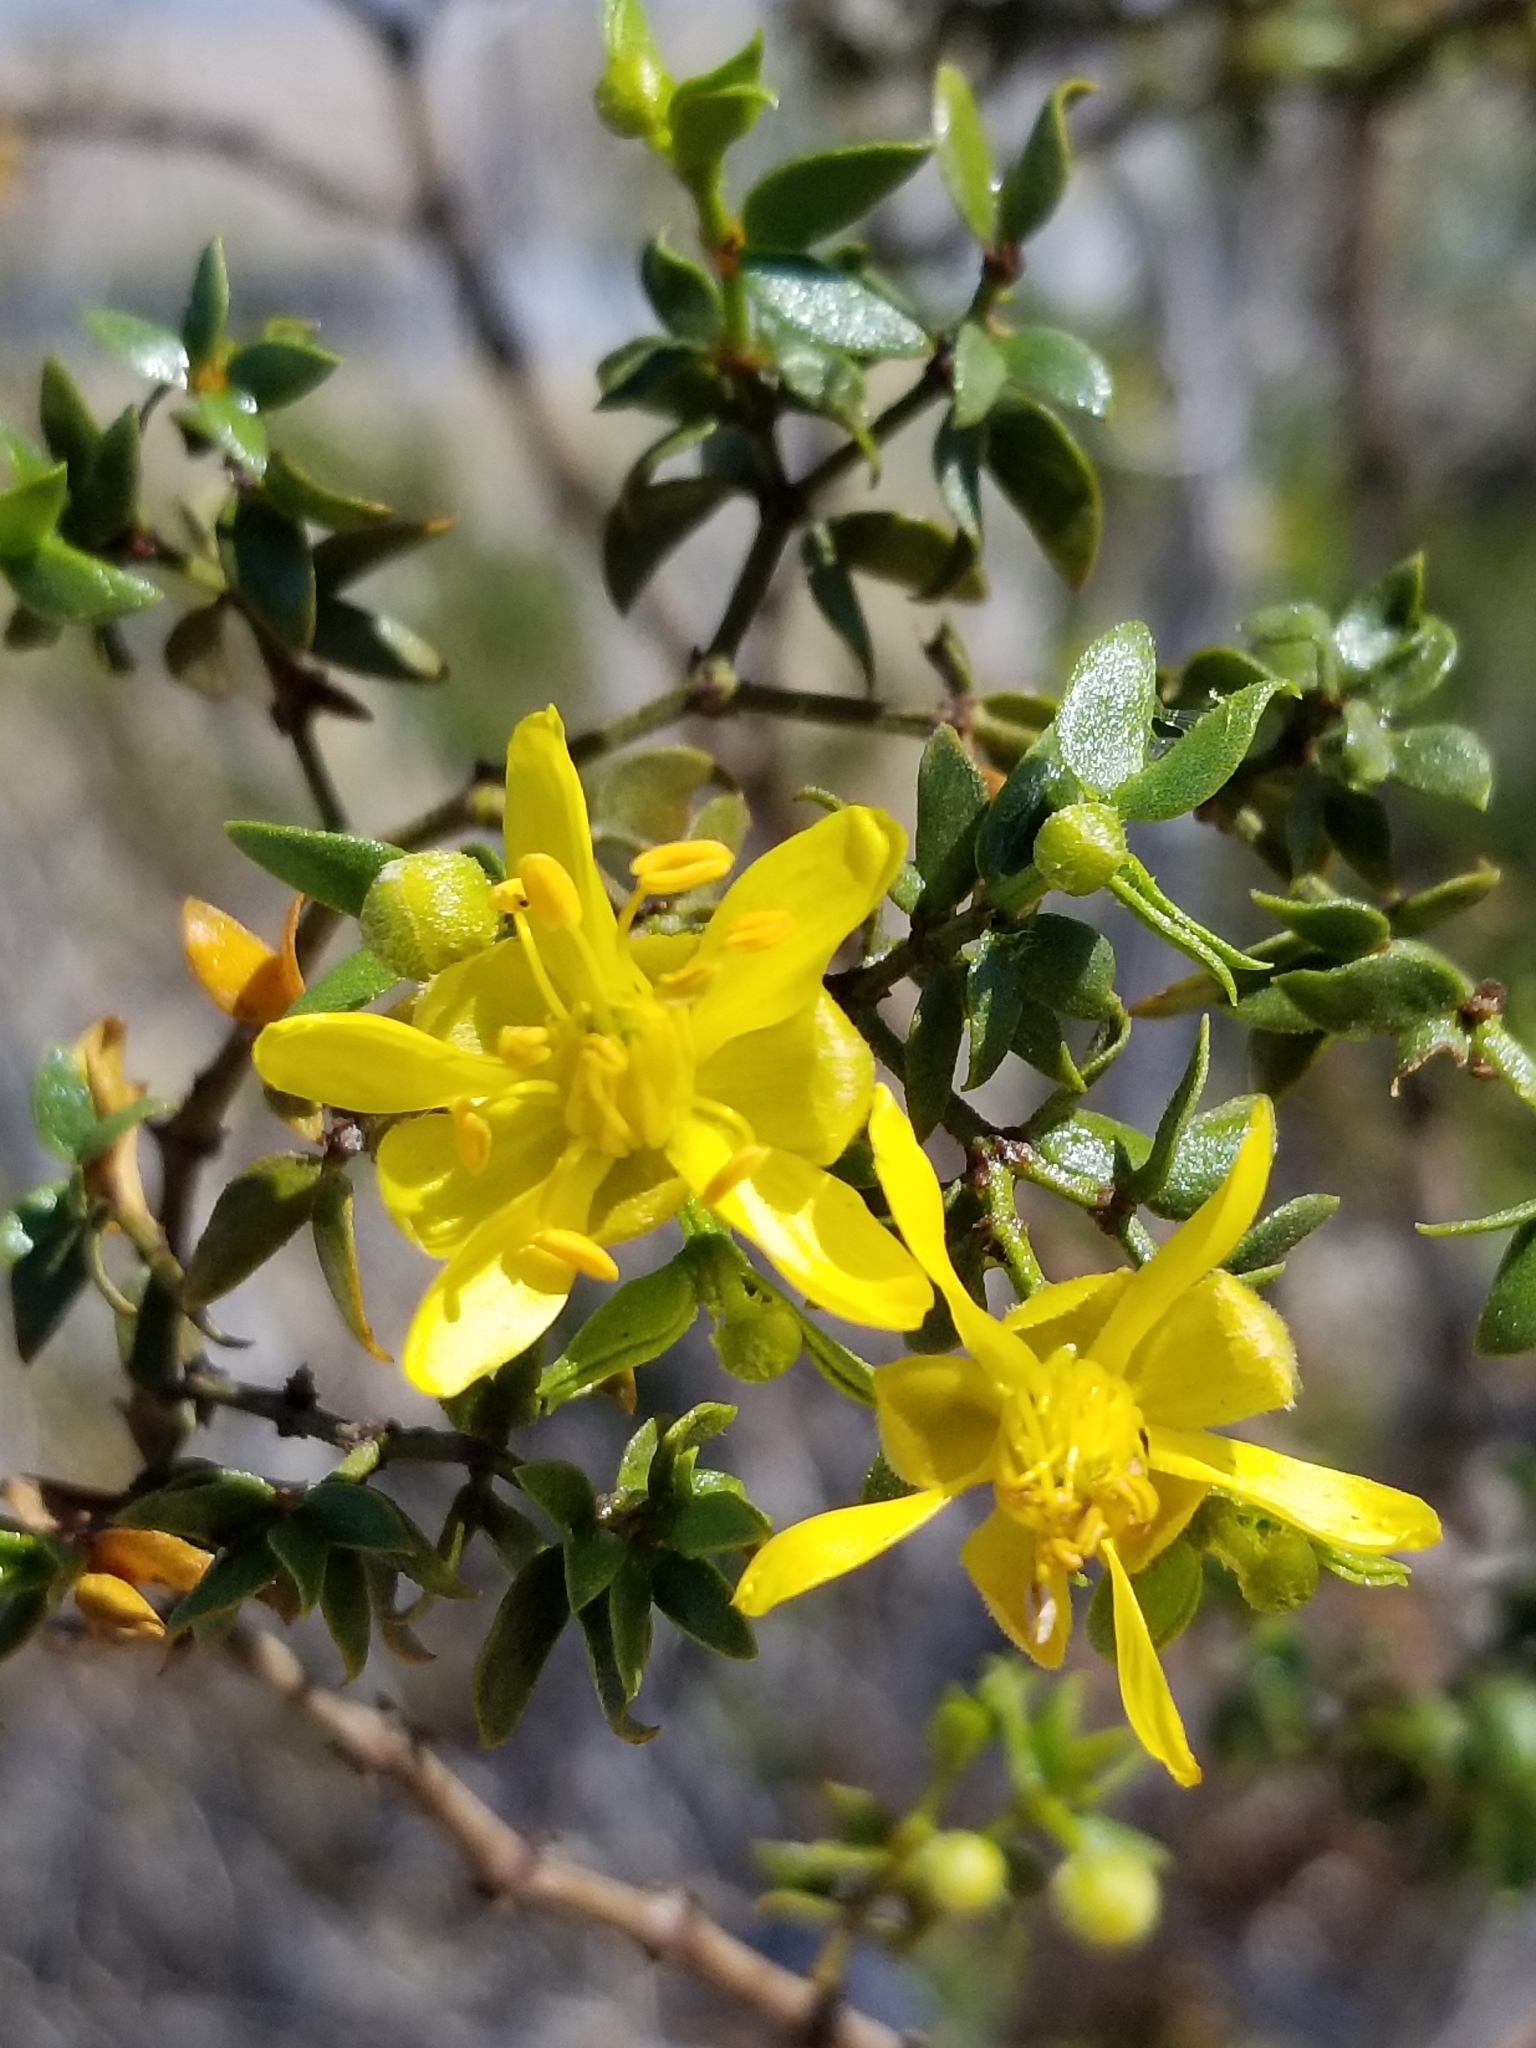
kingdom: Plantae
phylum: Tracheophyta
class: Magnoliopsida
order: Zygophyllales
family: Zygophyllaceae
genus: Larrea
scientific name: Larrea tridentata
